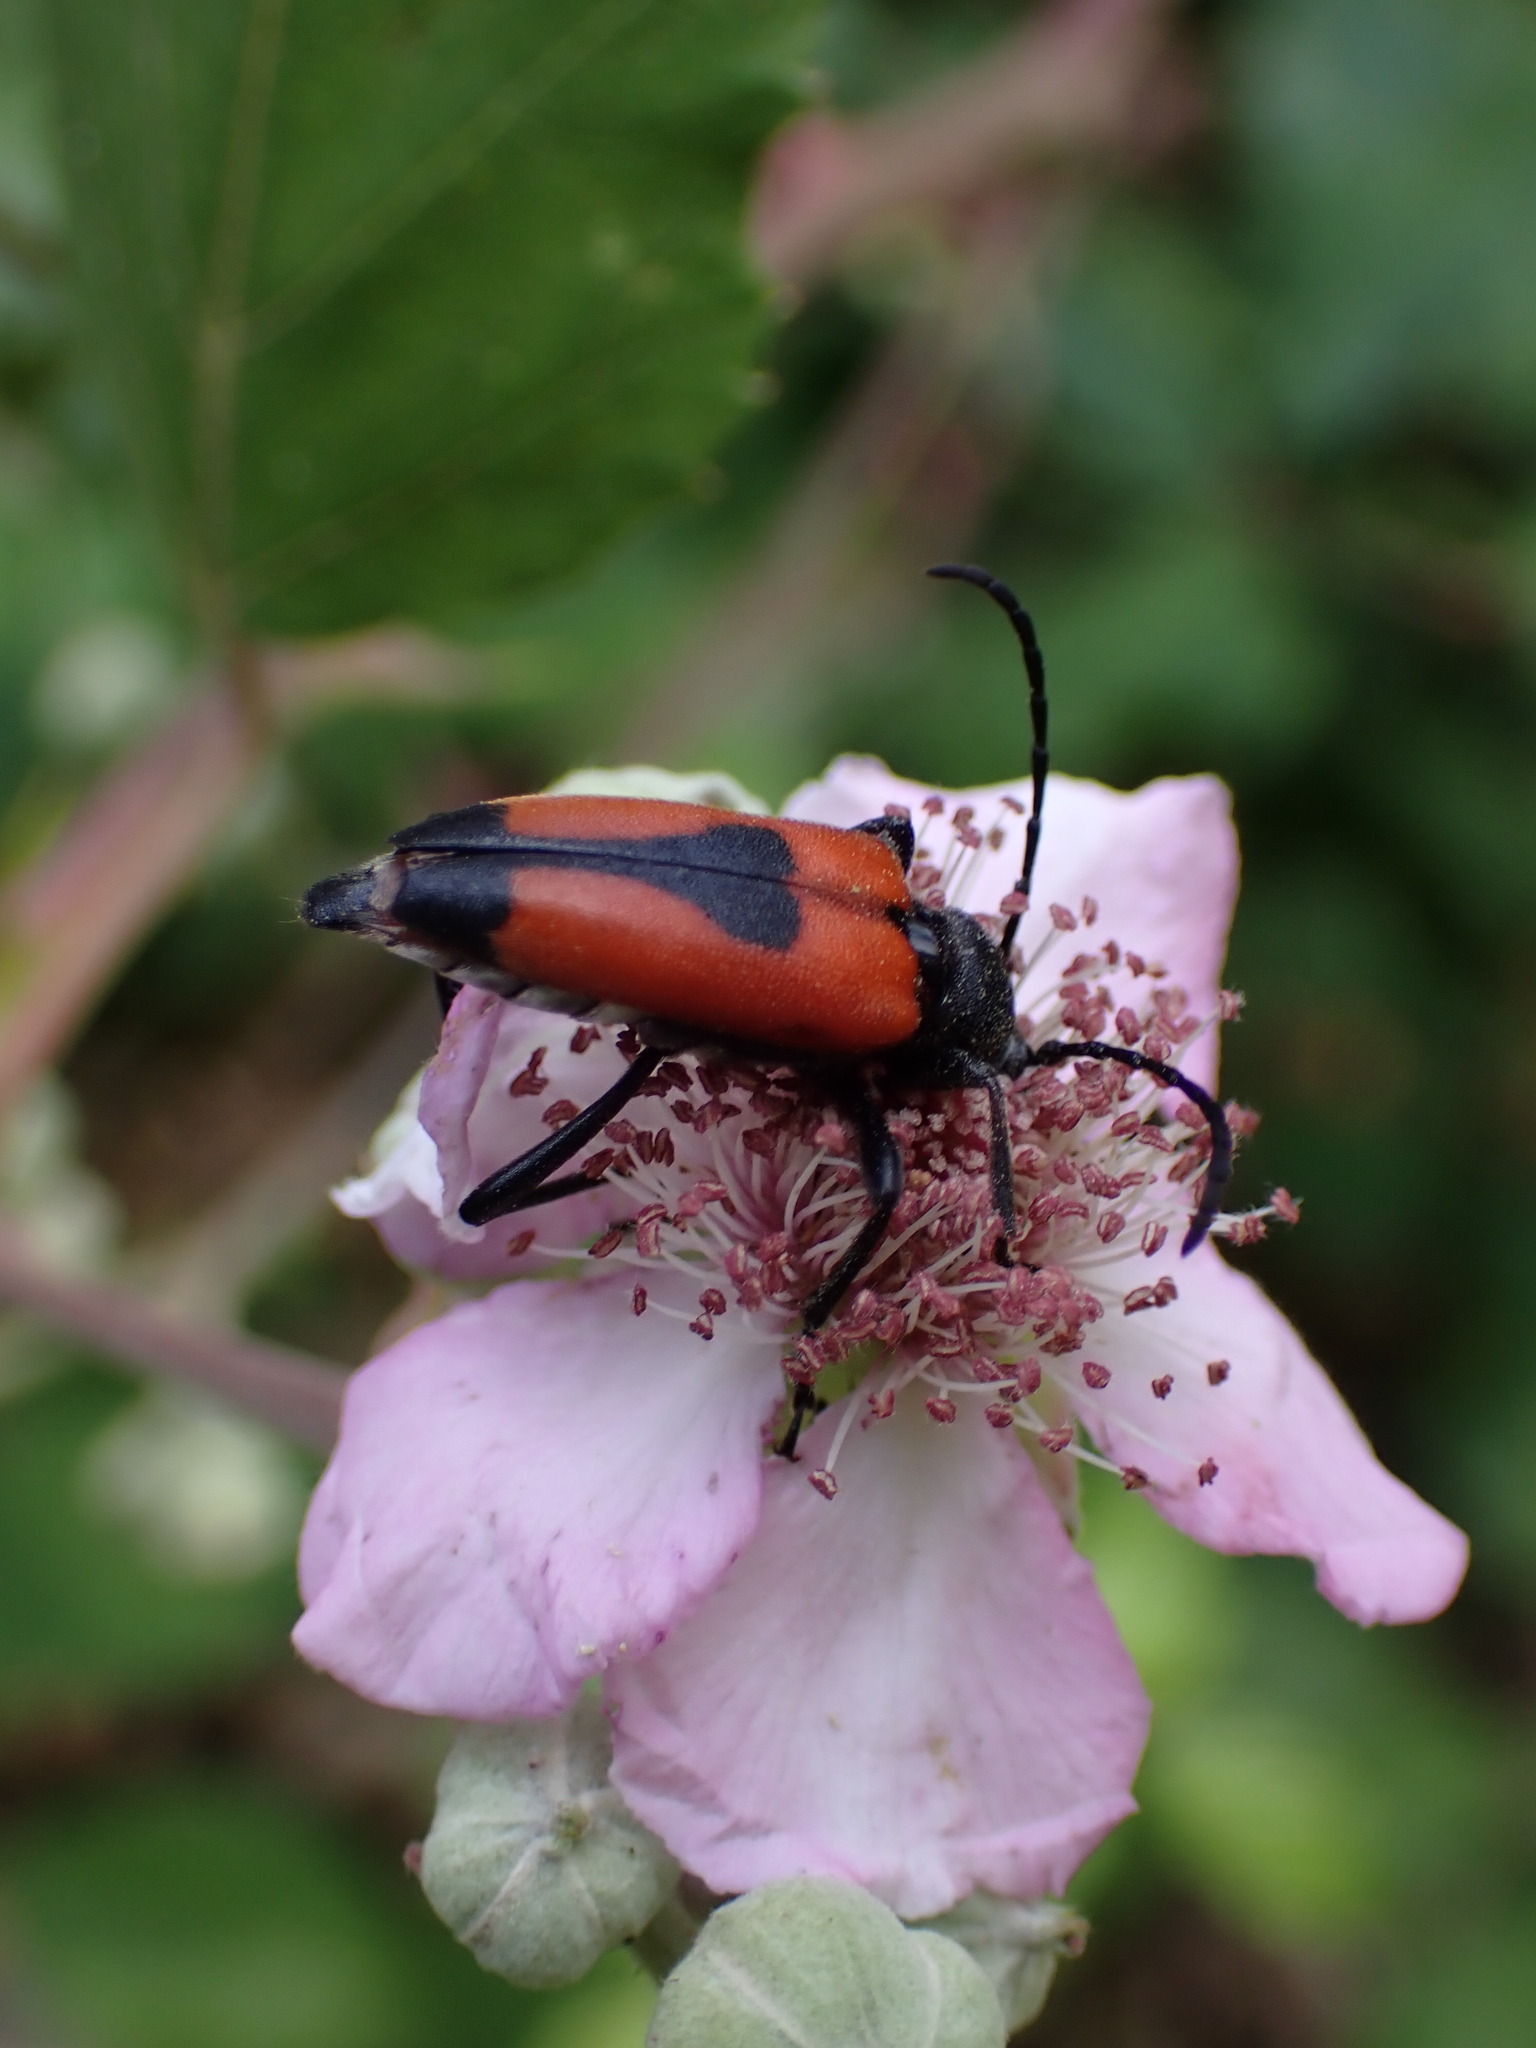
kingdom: Animalia
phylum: Arthropoda
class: Insecta
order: Coleoptera
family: Cerambycidae
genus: Stictoleptura
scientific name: Stictoleptura cordigera
